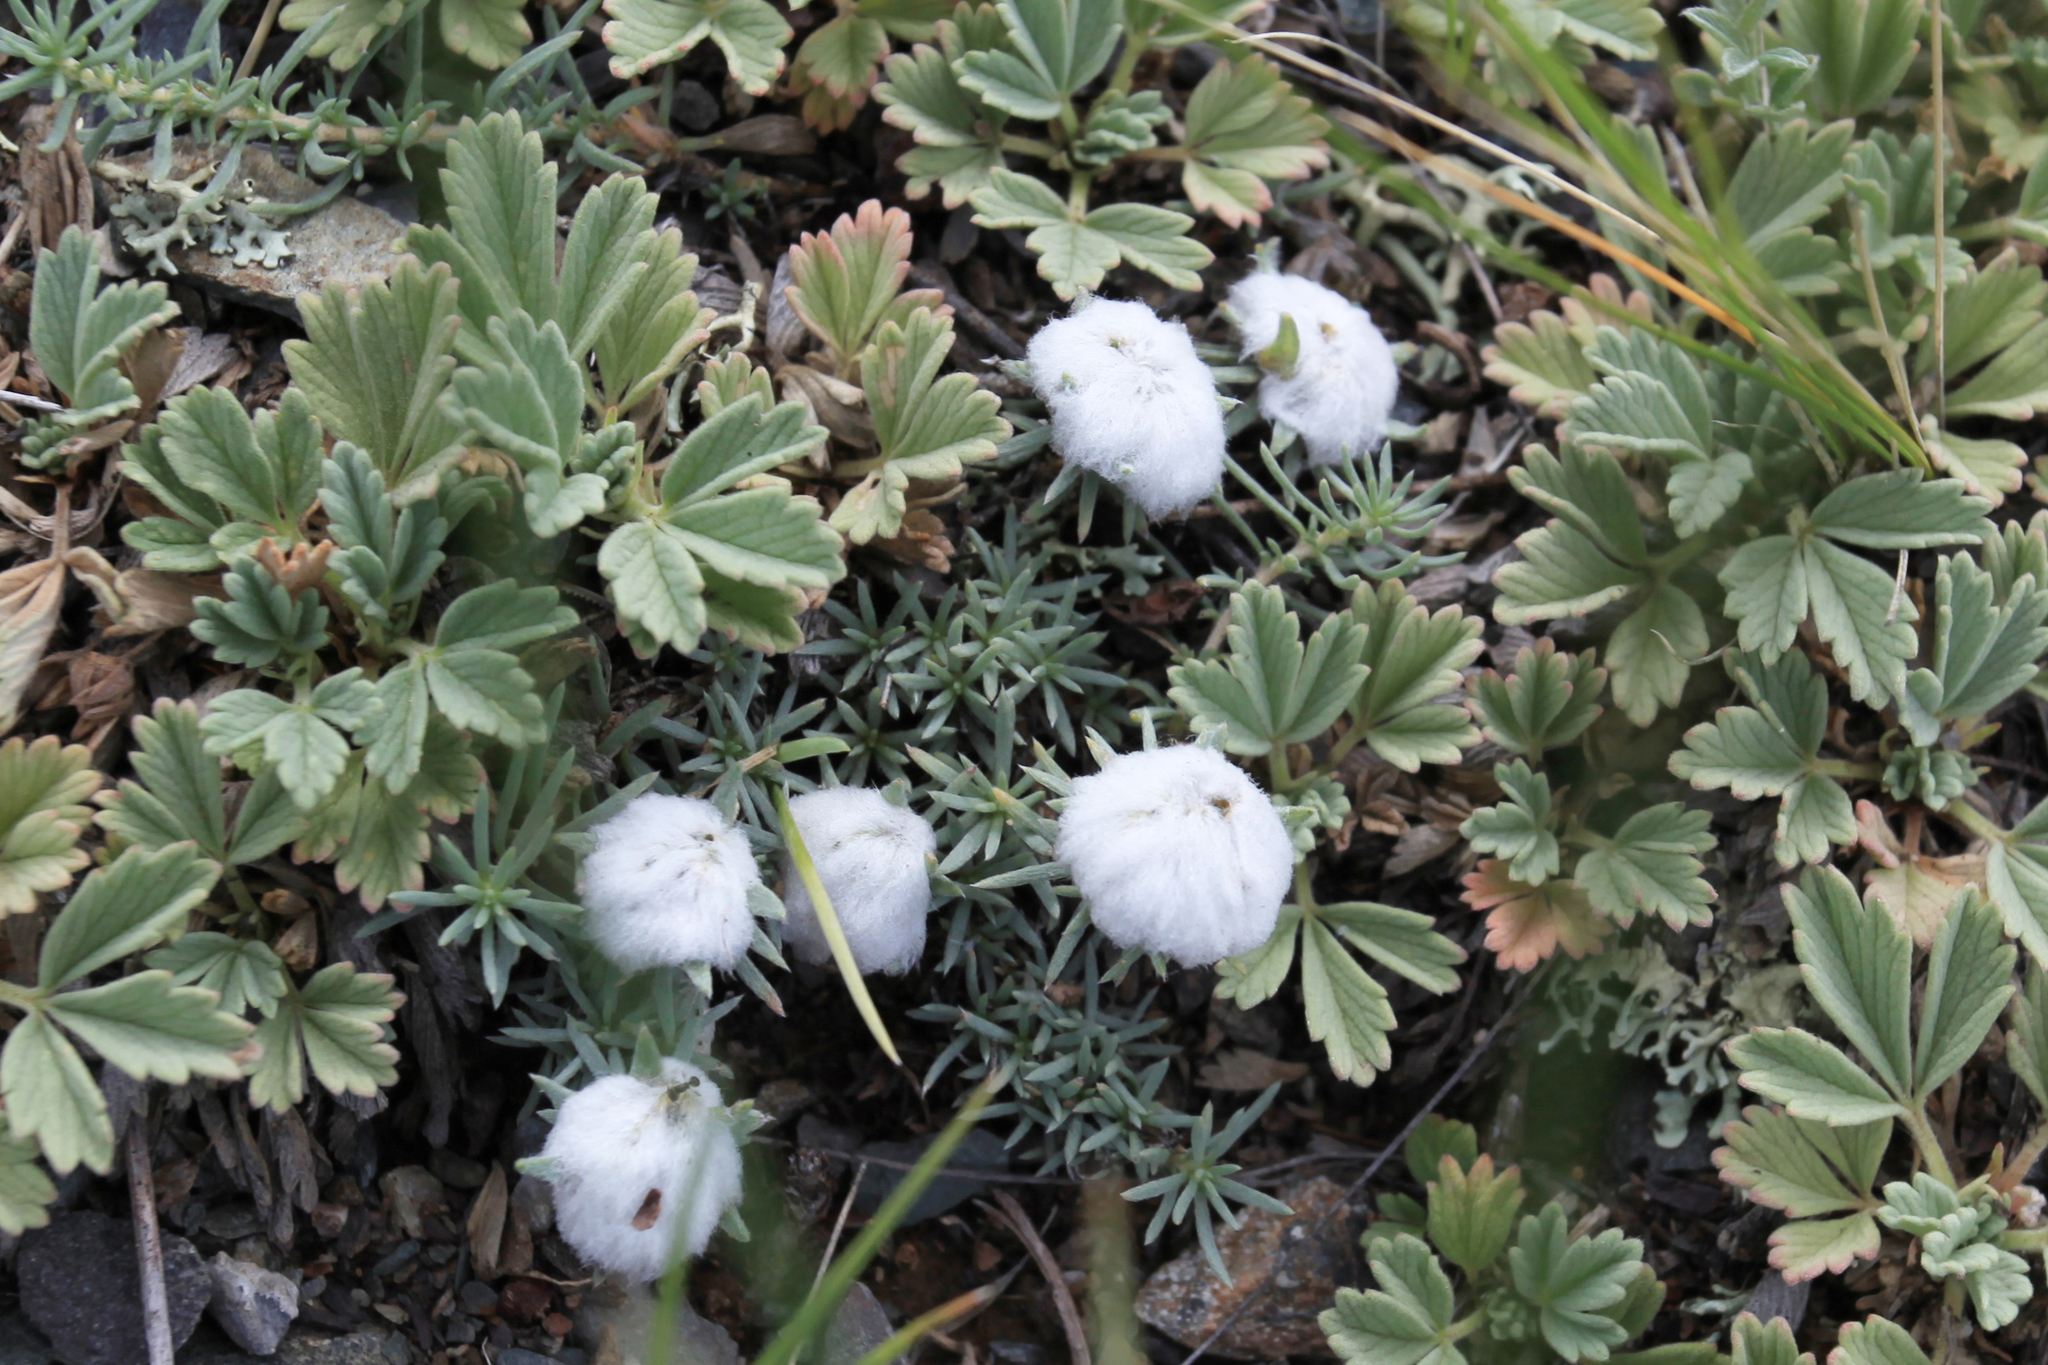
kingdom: Plantae
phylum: Tracheophyta
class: Magnoliopsida
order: Rosales
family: Rosaceae
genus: Potentilla
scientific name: Potentilla acaulis
